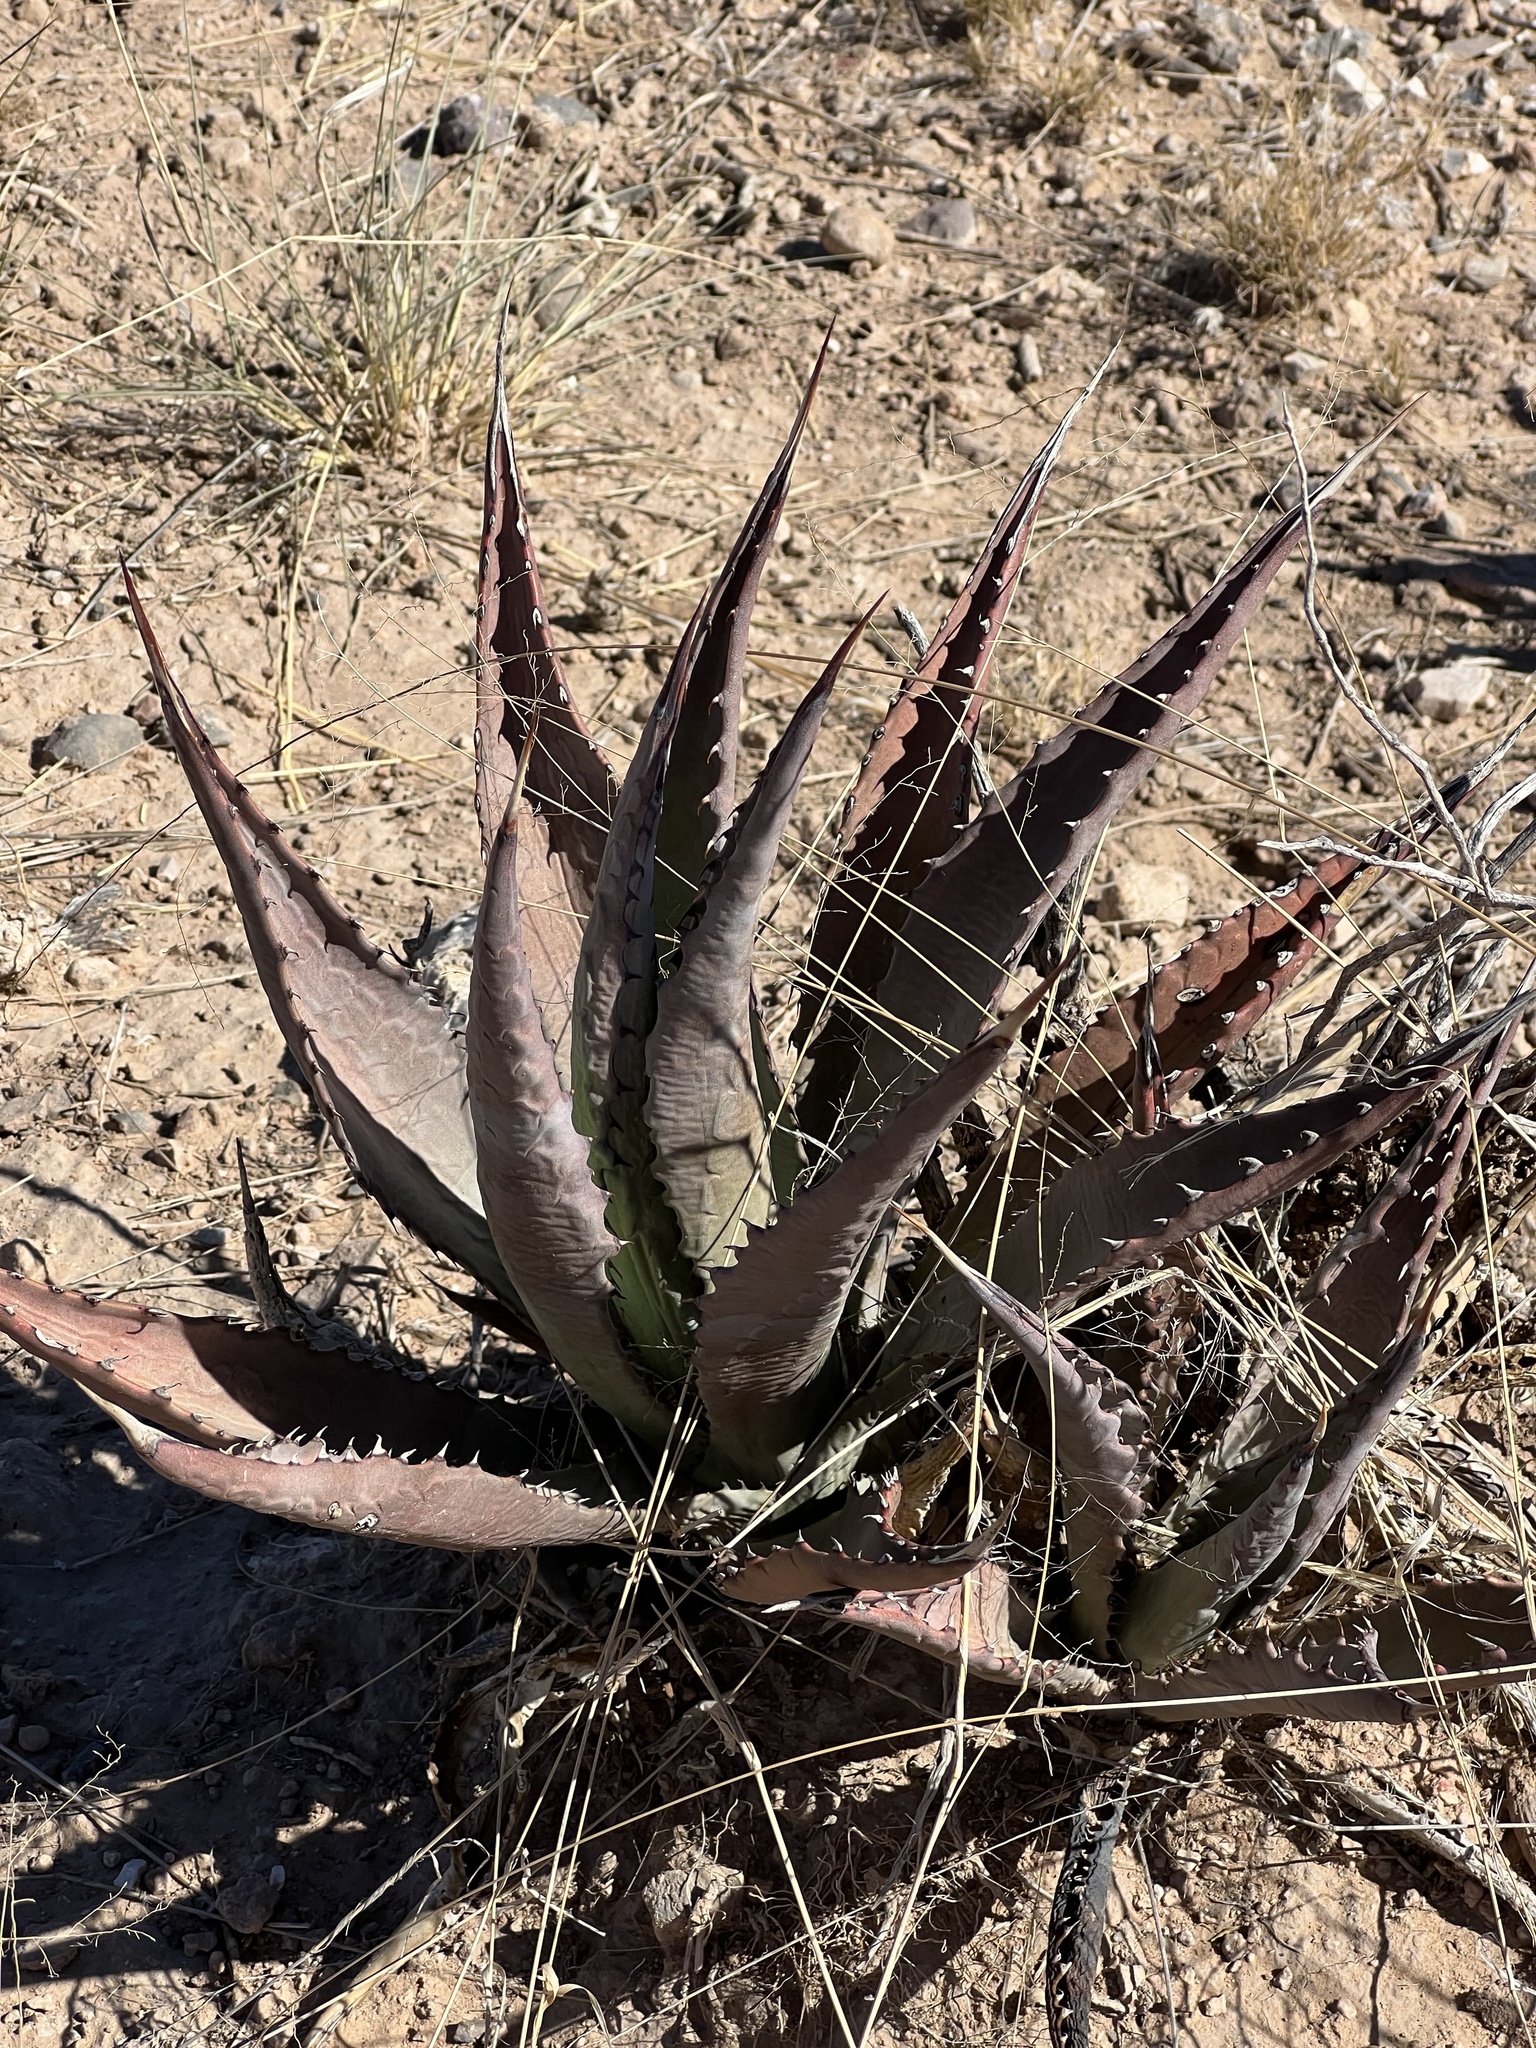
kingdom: Plantae
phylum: Tracheophyta
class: Liliopsida
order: Asparagales
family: Asparagaceae
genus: Agave
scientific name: Agave palmeri
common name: Palmer agave
